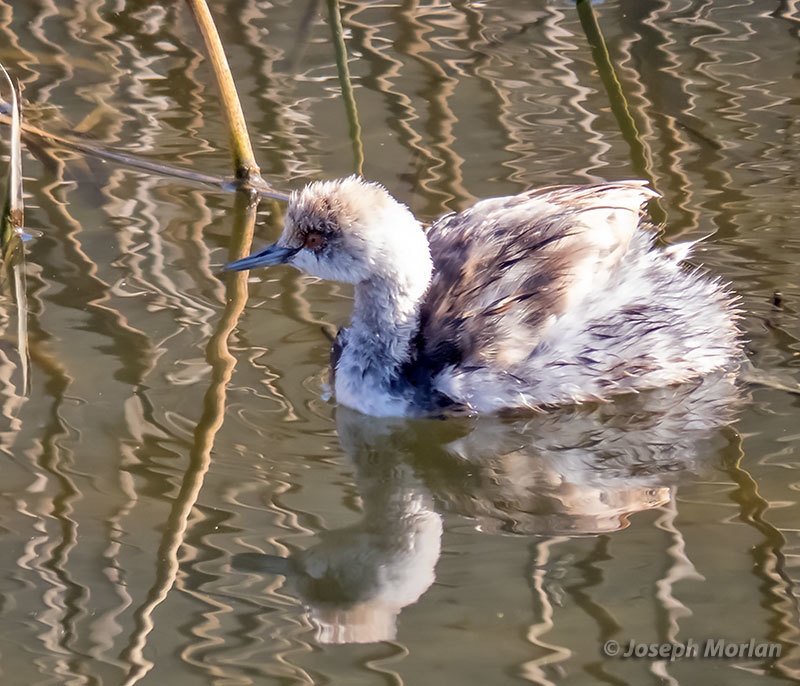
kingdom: Animalia
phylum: Chordata
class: Aves
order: Podicipediformes
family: Podicipedidae
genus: Podiceps
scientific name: Podiceps nigricollis
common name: Black-necked grebe
